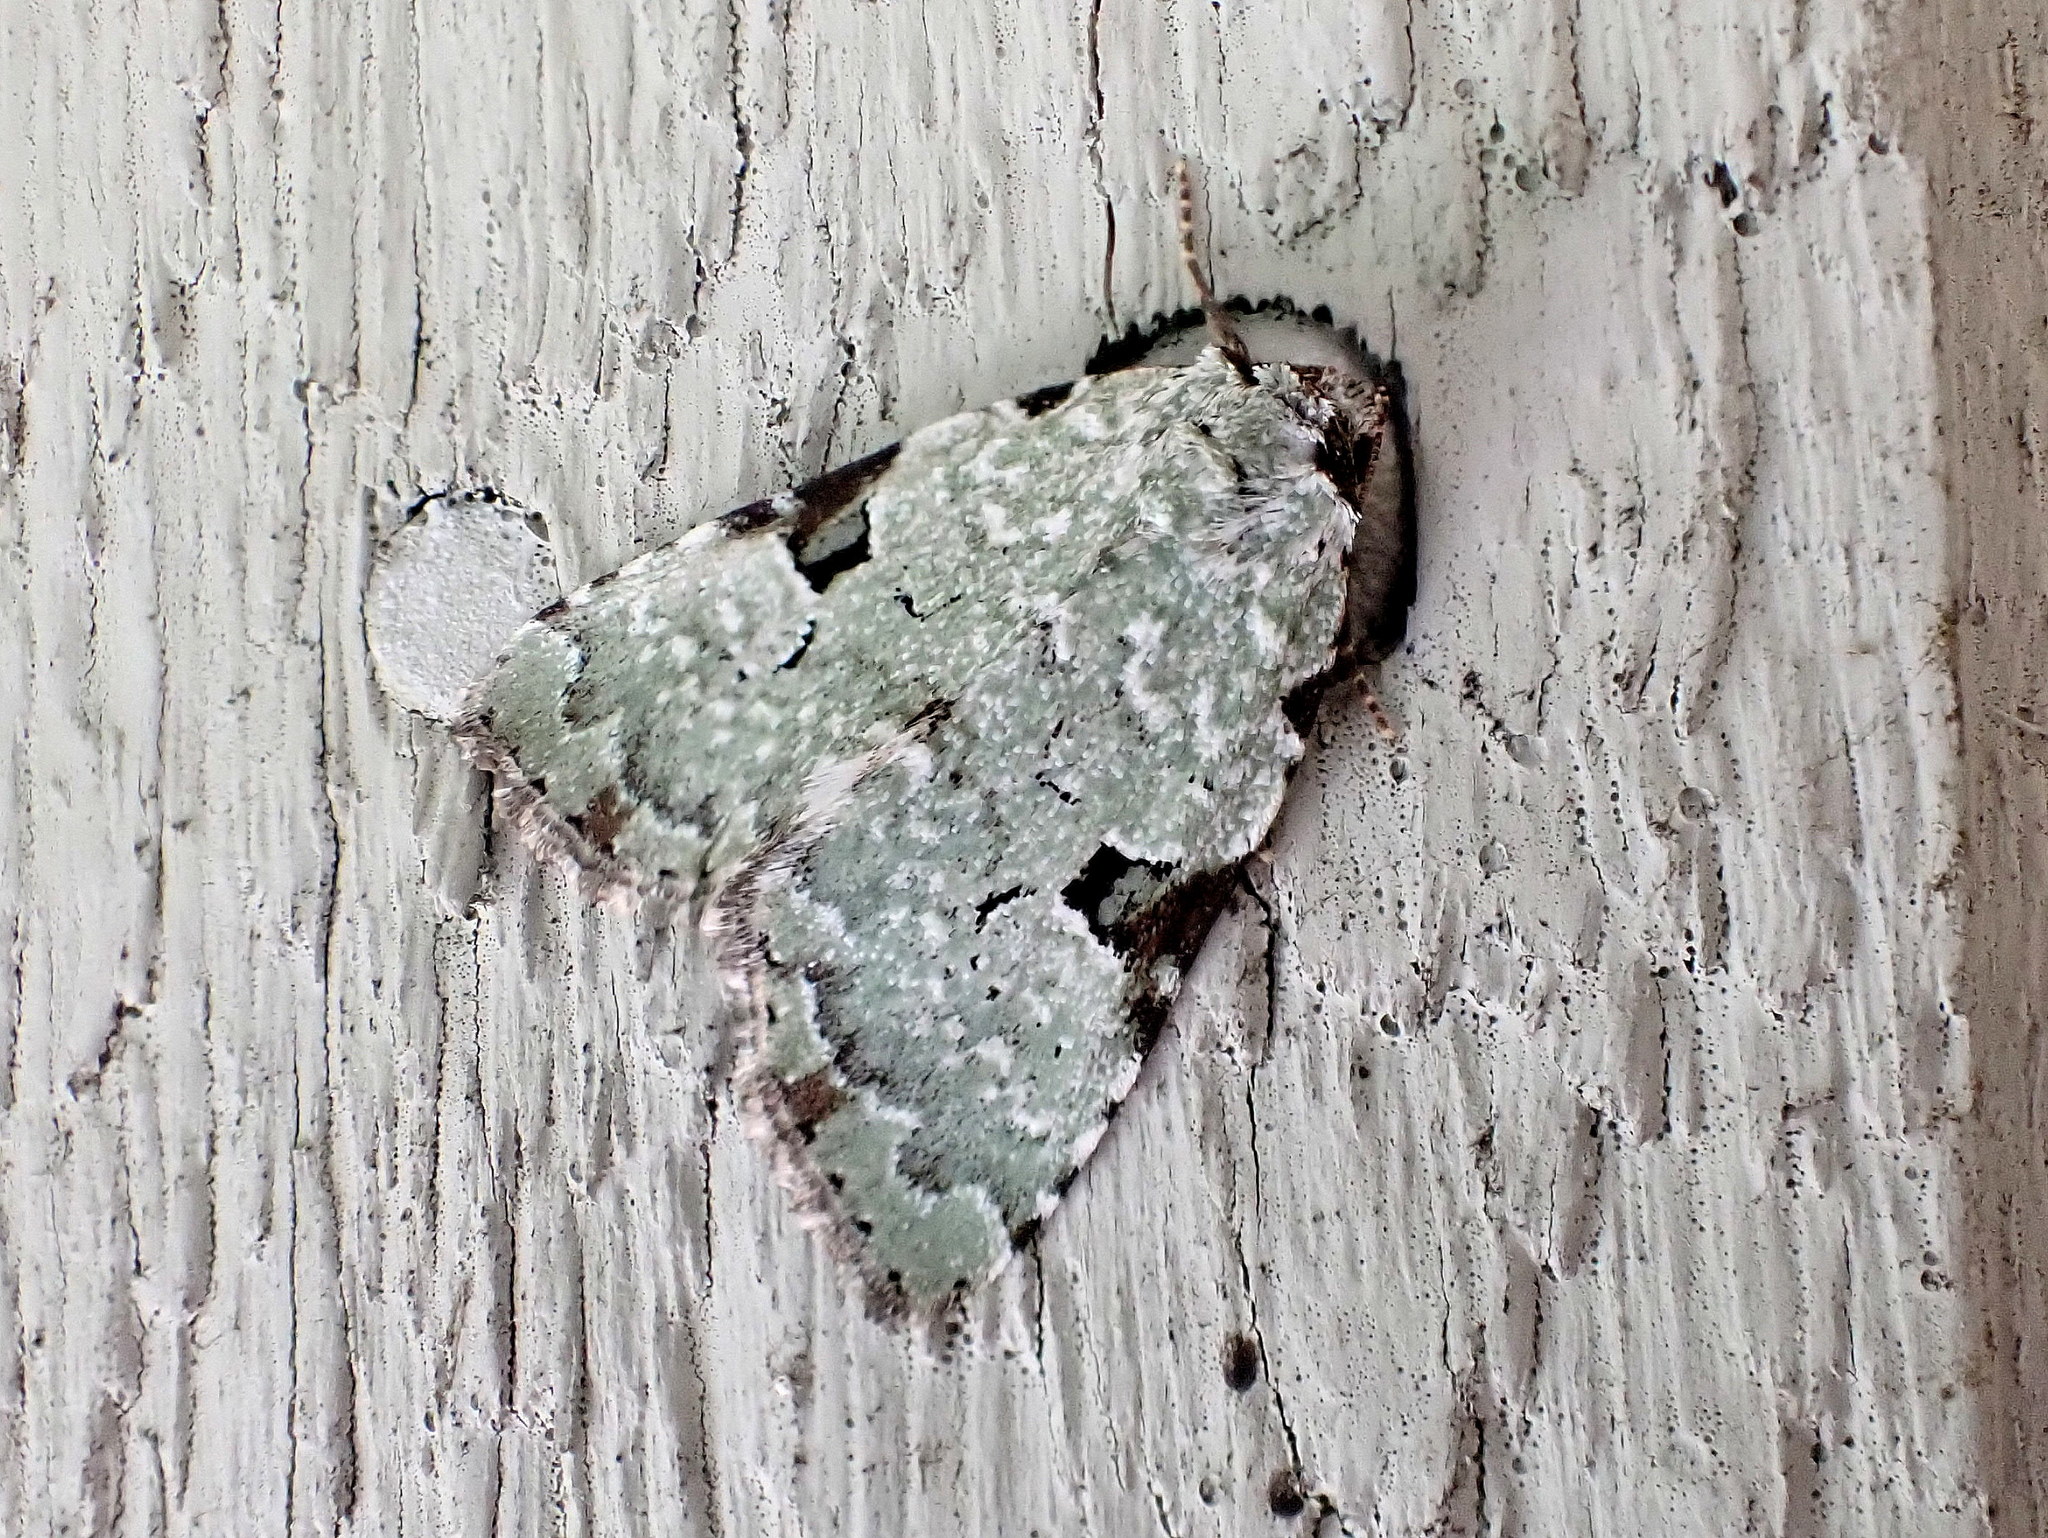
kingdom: Animalia
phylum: Arthropoda
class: Insecta
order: Lepidoptera
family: Noctuidae
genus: Leuconycta
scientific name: Leuconycta diphteroides
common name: Green leuconycta moth
